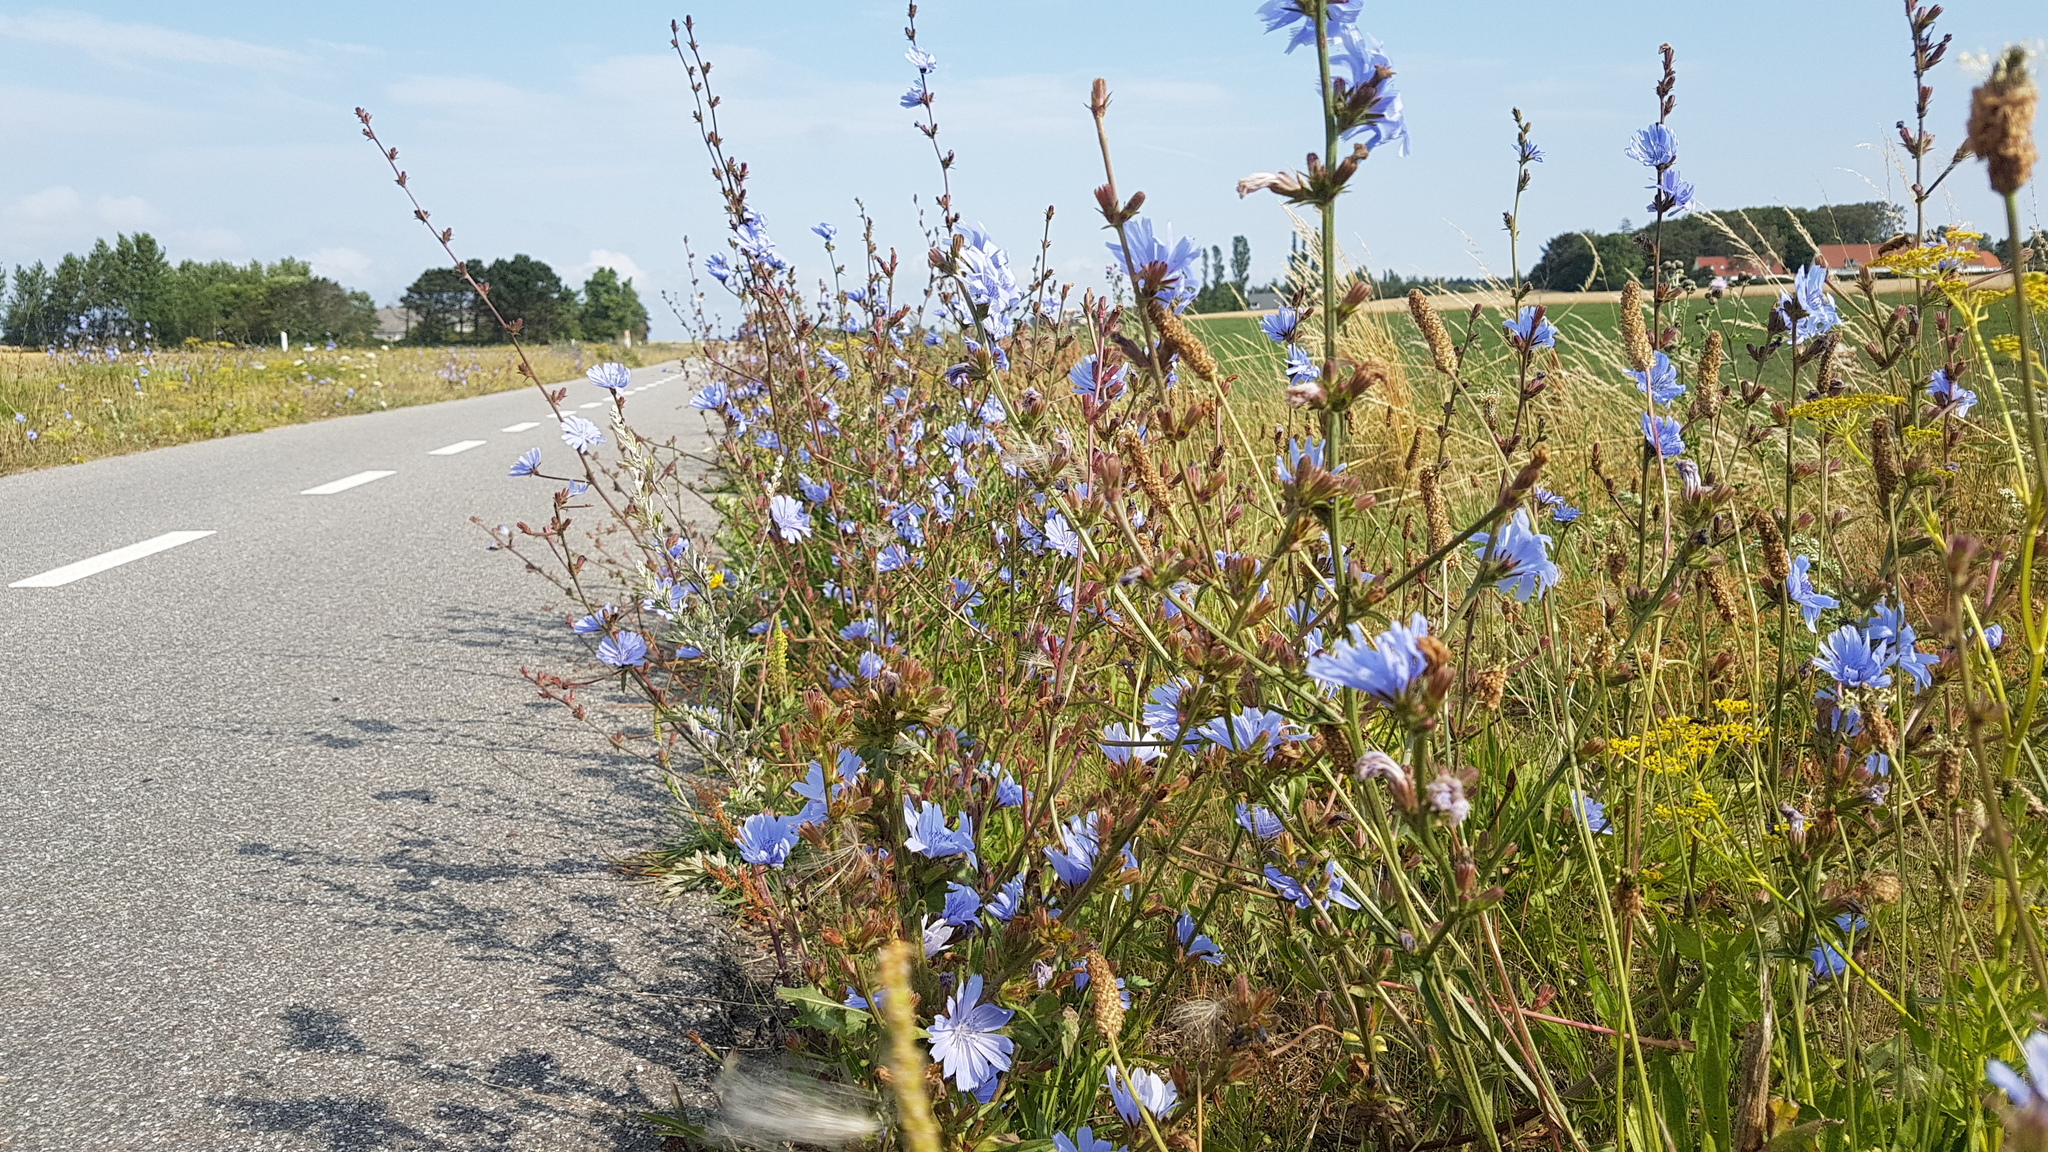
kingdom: Plantae
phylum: Tracheophyta
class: Magnoliopsida
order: Asterales
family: Asteraceae
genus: Cichorium
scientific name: Cichorium intybus
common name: Chicory
